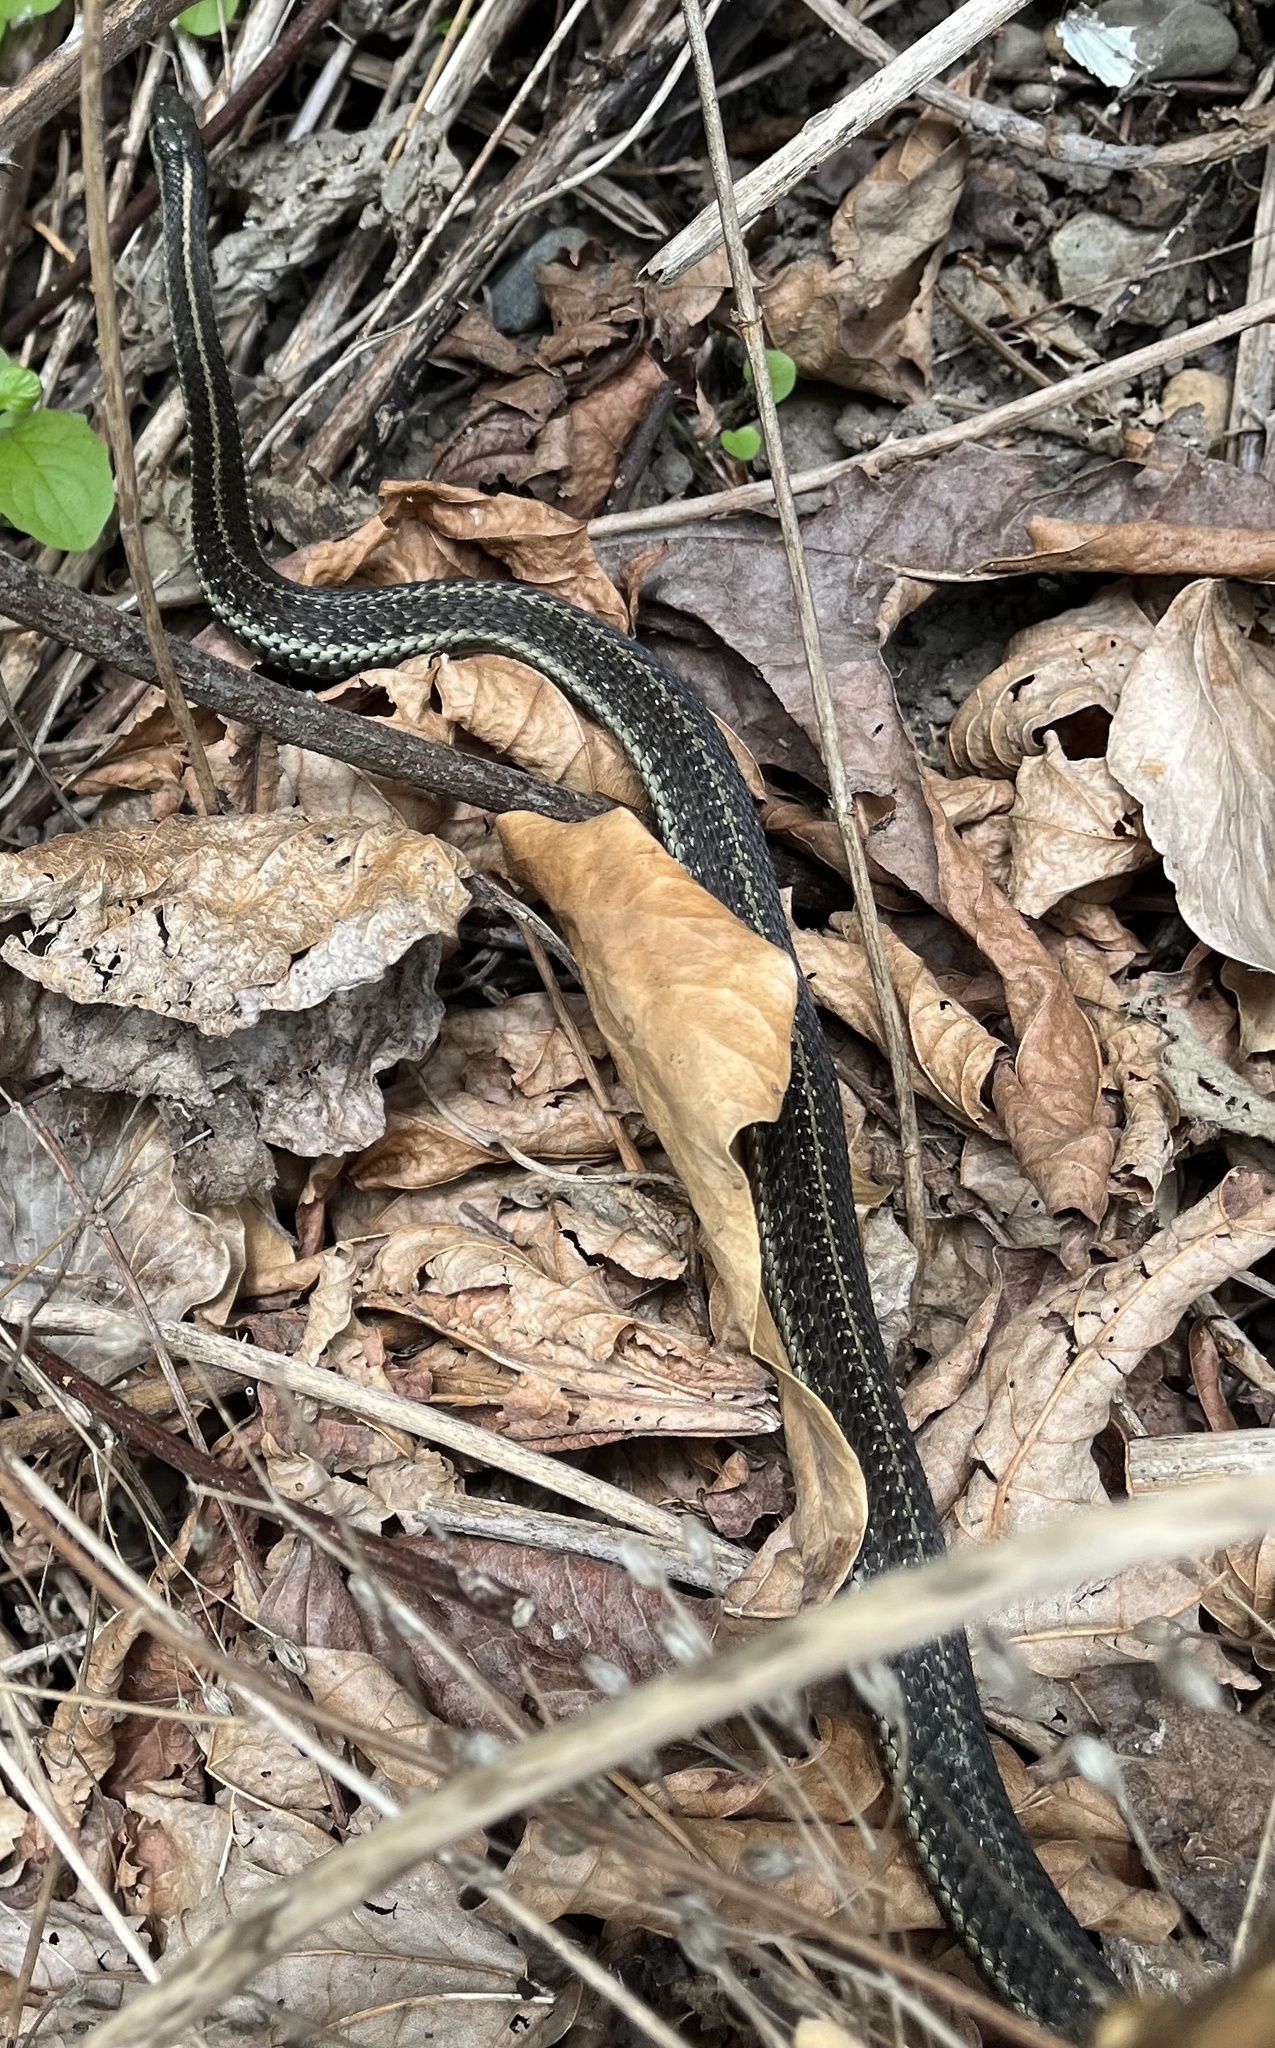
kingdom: Animalia
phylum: Chordata
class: Squamata
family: Colubridae
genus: Thamnophis
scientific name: Thamnophis ordinoides
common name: Northwestern garter snake
